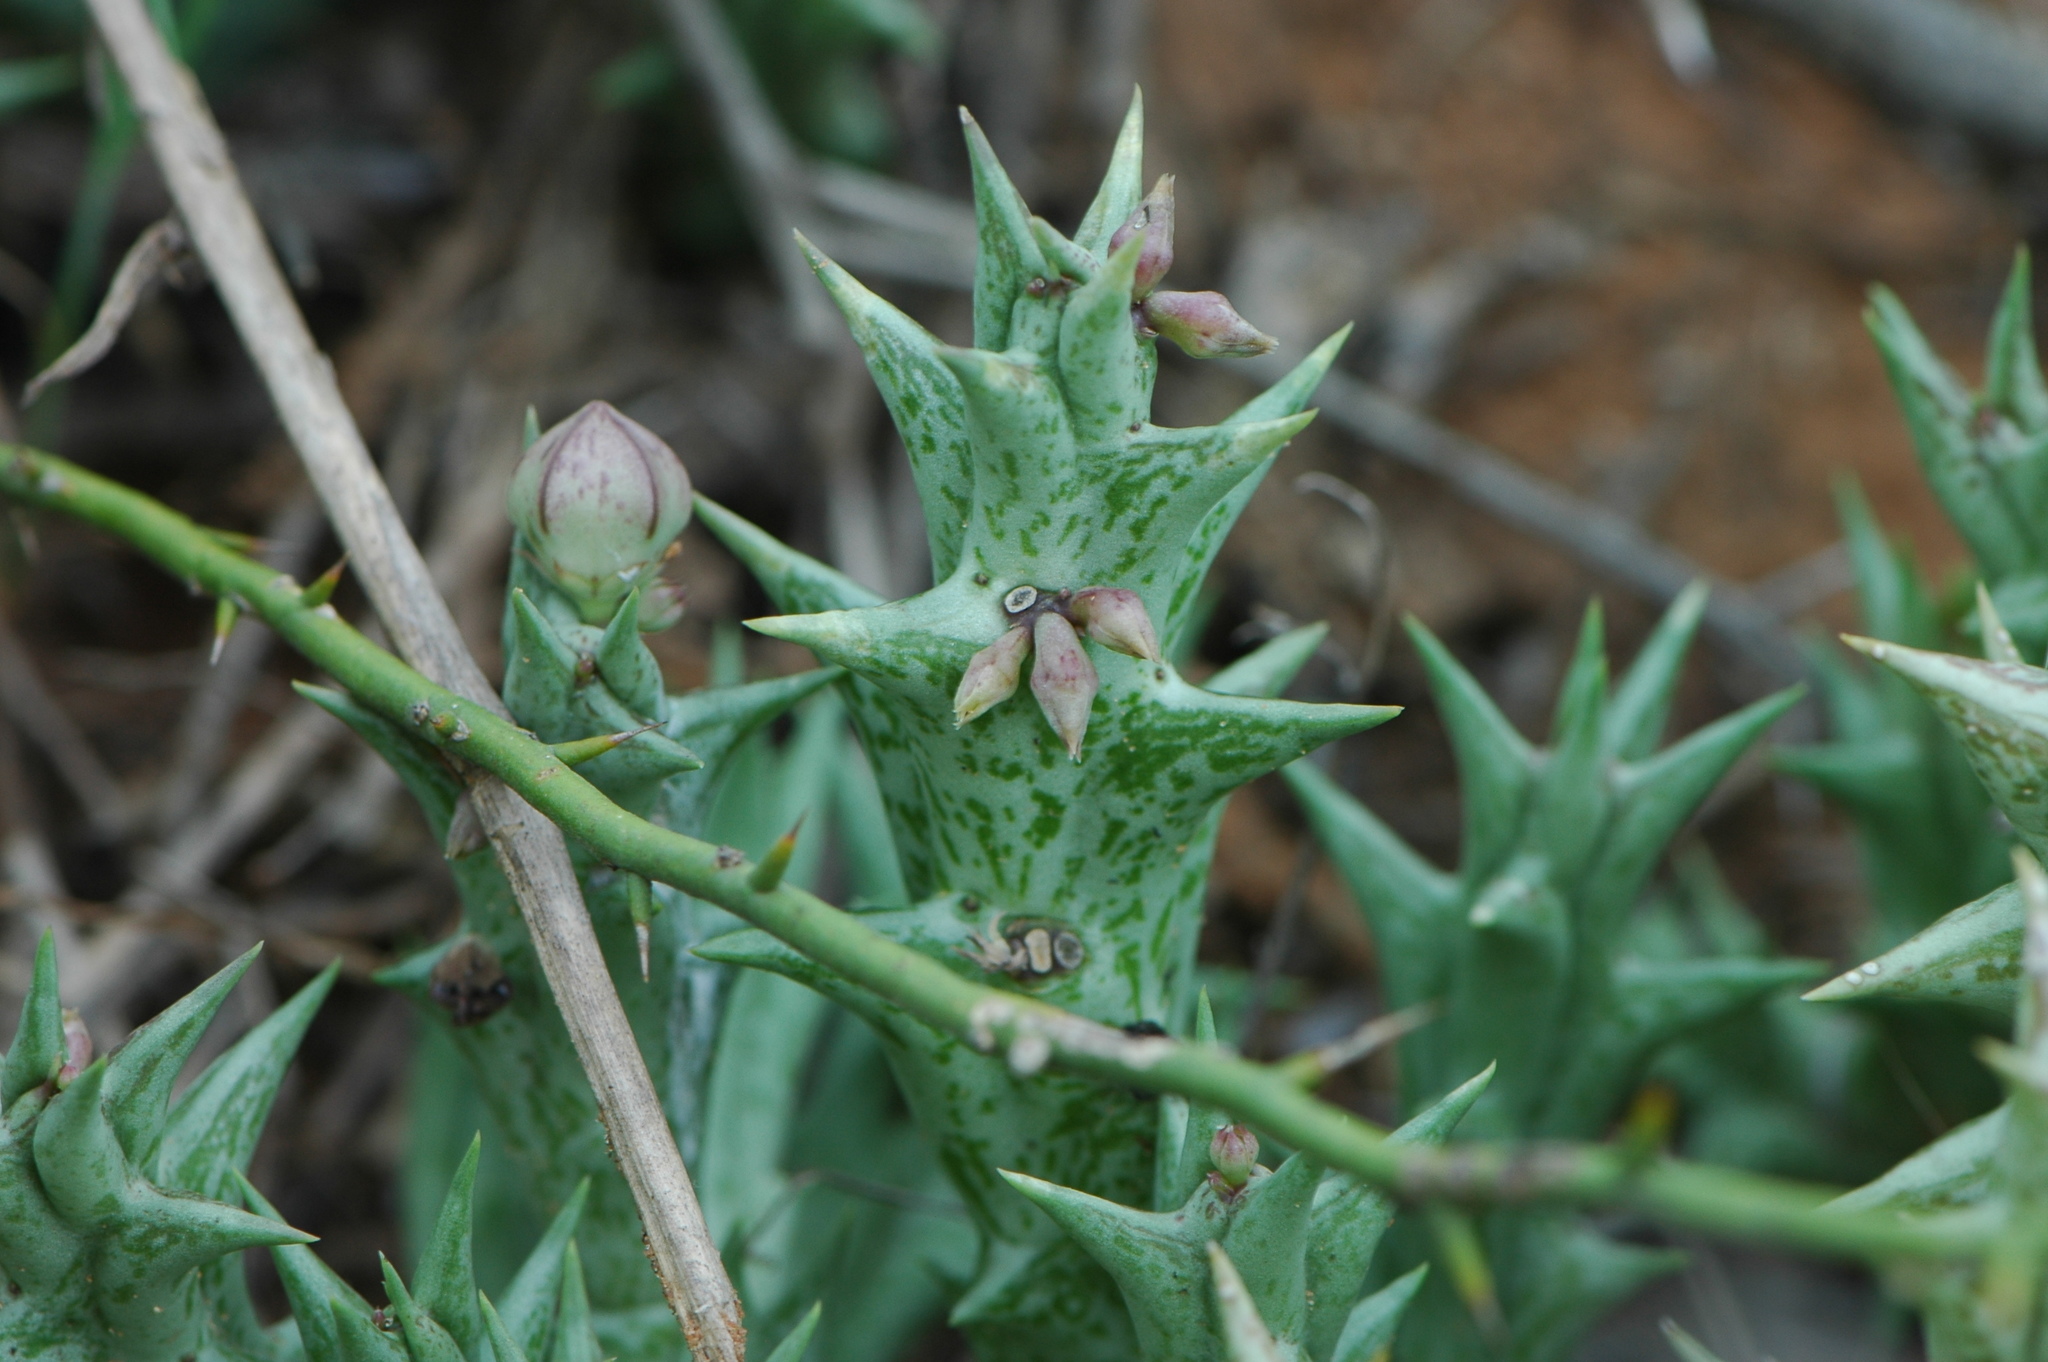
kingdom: Plantae
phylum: Tracheophyta
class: Magnoliopsida
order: Gentianales
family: Apocynaceae
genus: Ceropegia
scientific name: Ceropegia venenosa
